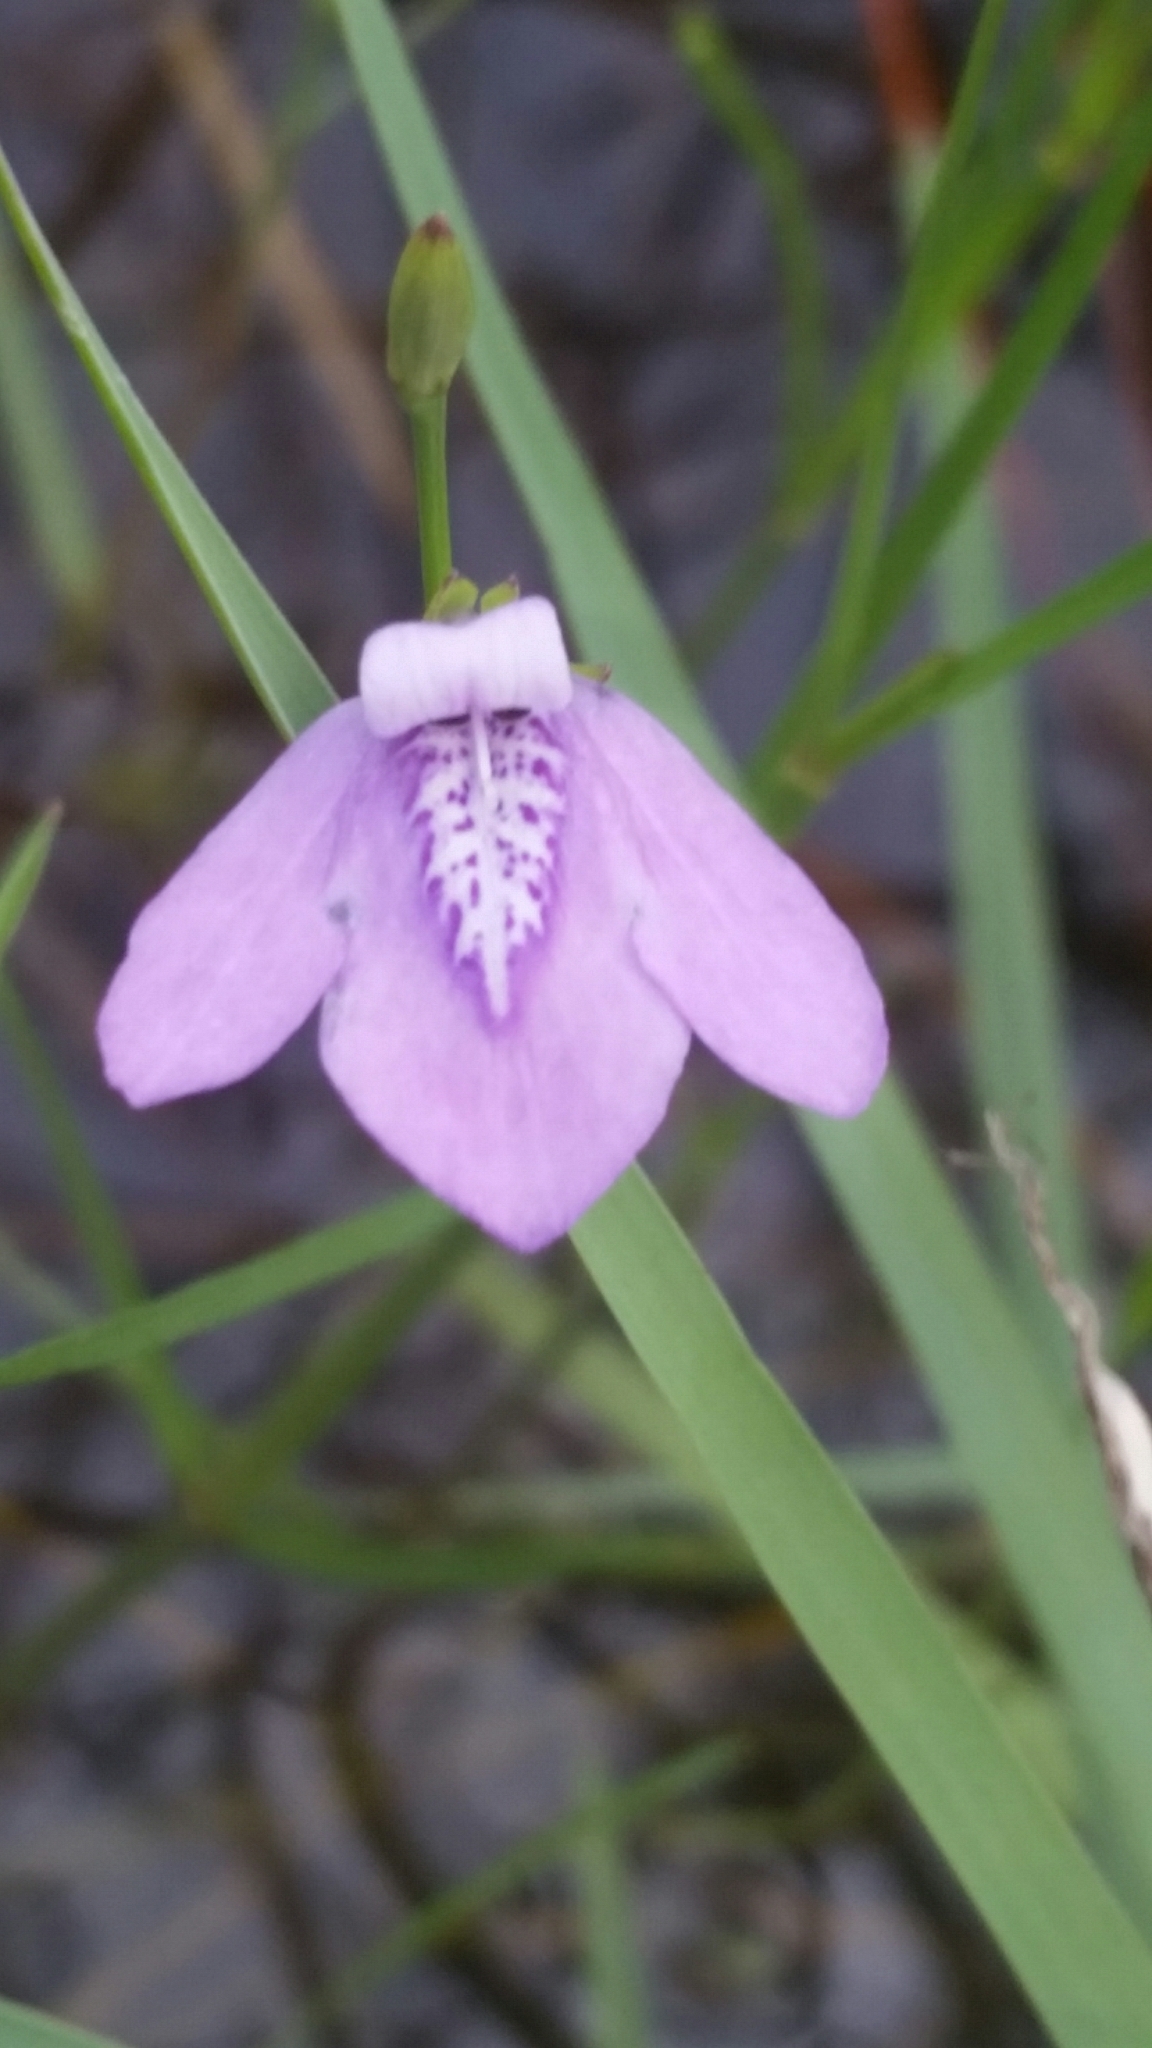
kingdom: Plantae
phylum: Tracheophyta
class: Magnoliopsida
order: Lamiales
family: Acanthaceae
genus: Dianthera
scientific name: Dianthera angusta
